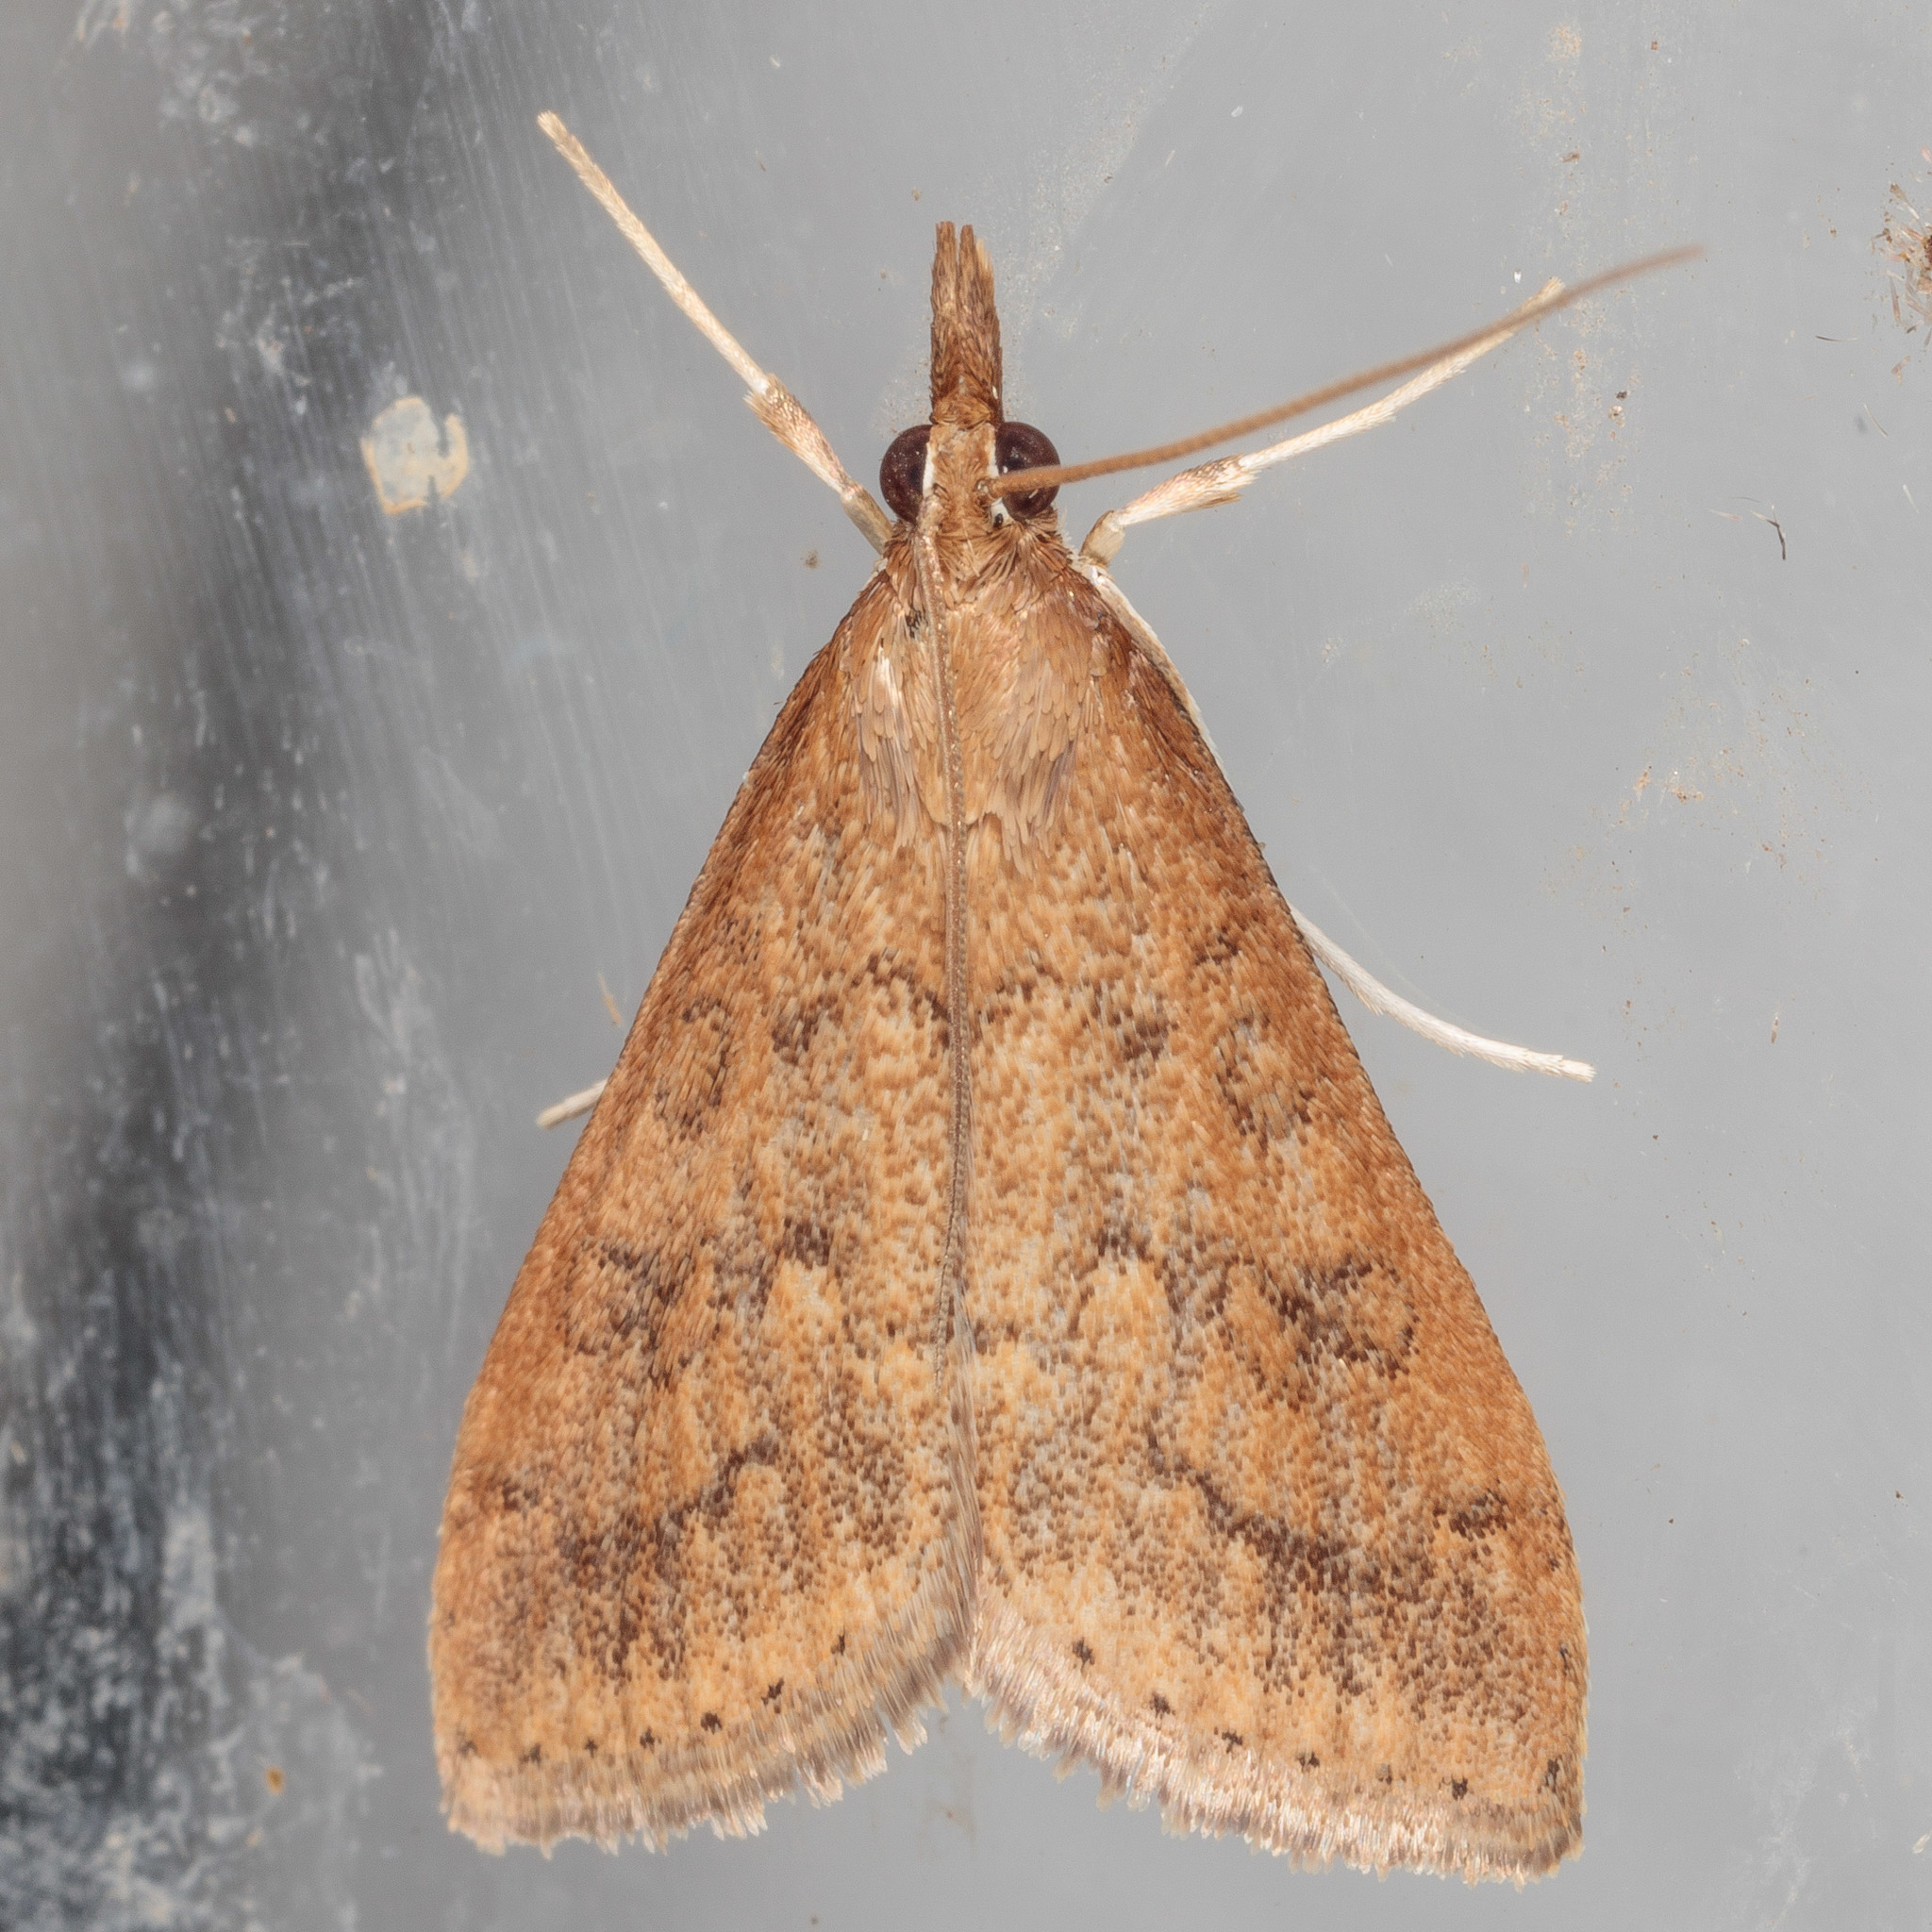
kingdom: Animalia
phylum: Arthropoda
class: Insecta
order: Lepidoptera
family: Crambidae
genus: Udea
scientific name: Udea rubigalis
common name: Celery leaftier moth
